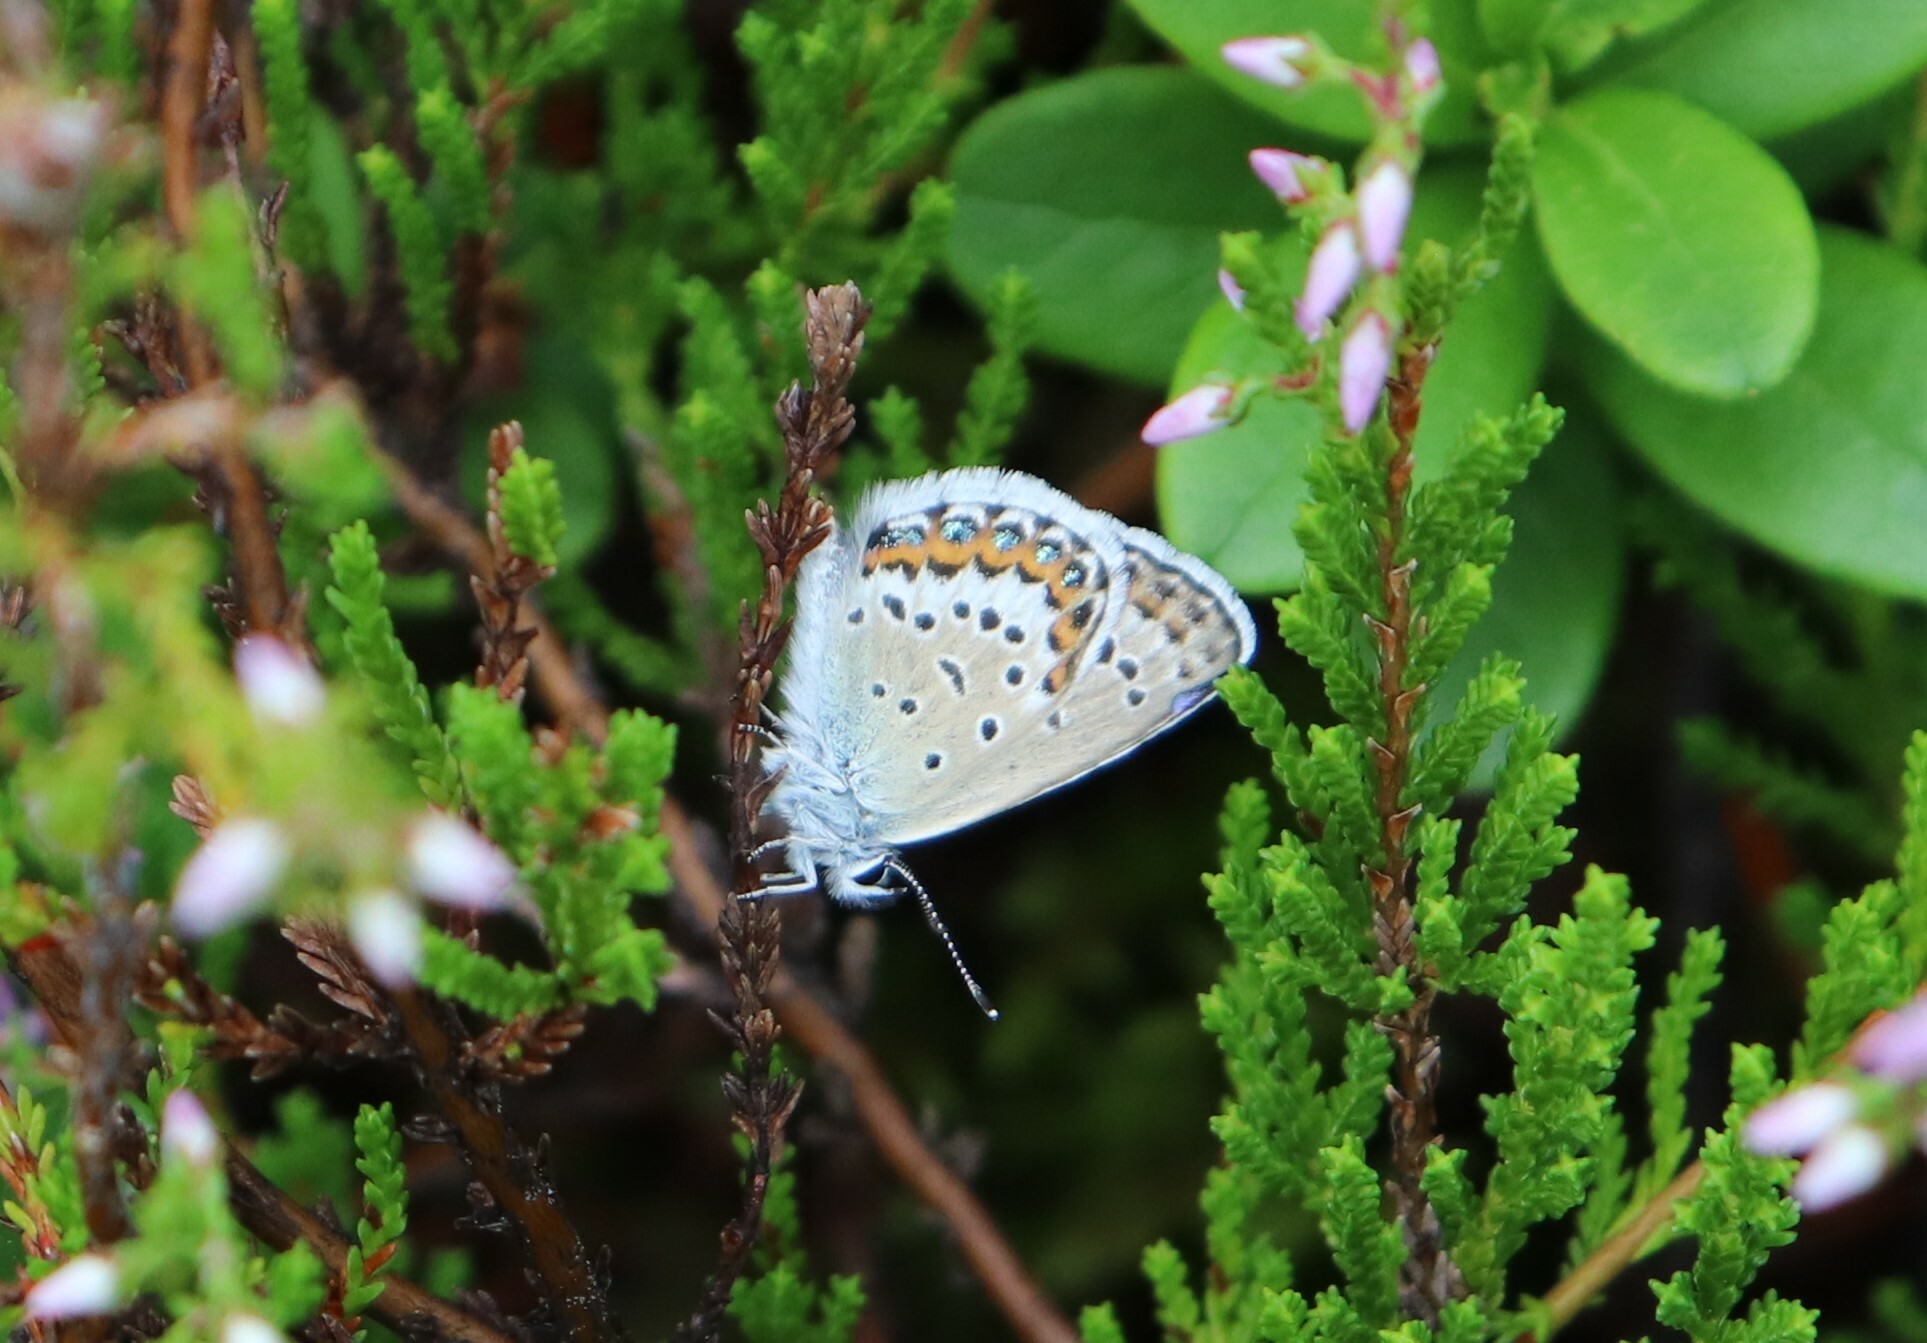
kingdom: Animalia
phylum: Arthropoda
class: Insecta
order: Lepidoptera
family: Lycaenidae
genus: Lycaeides
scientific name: Lycaeides idas
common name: Northern blue
